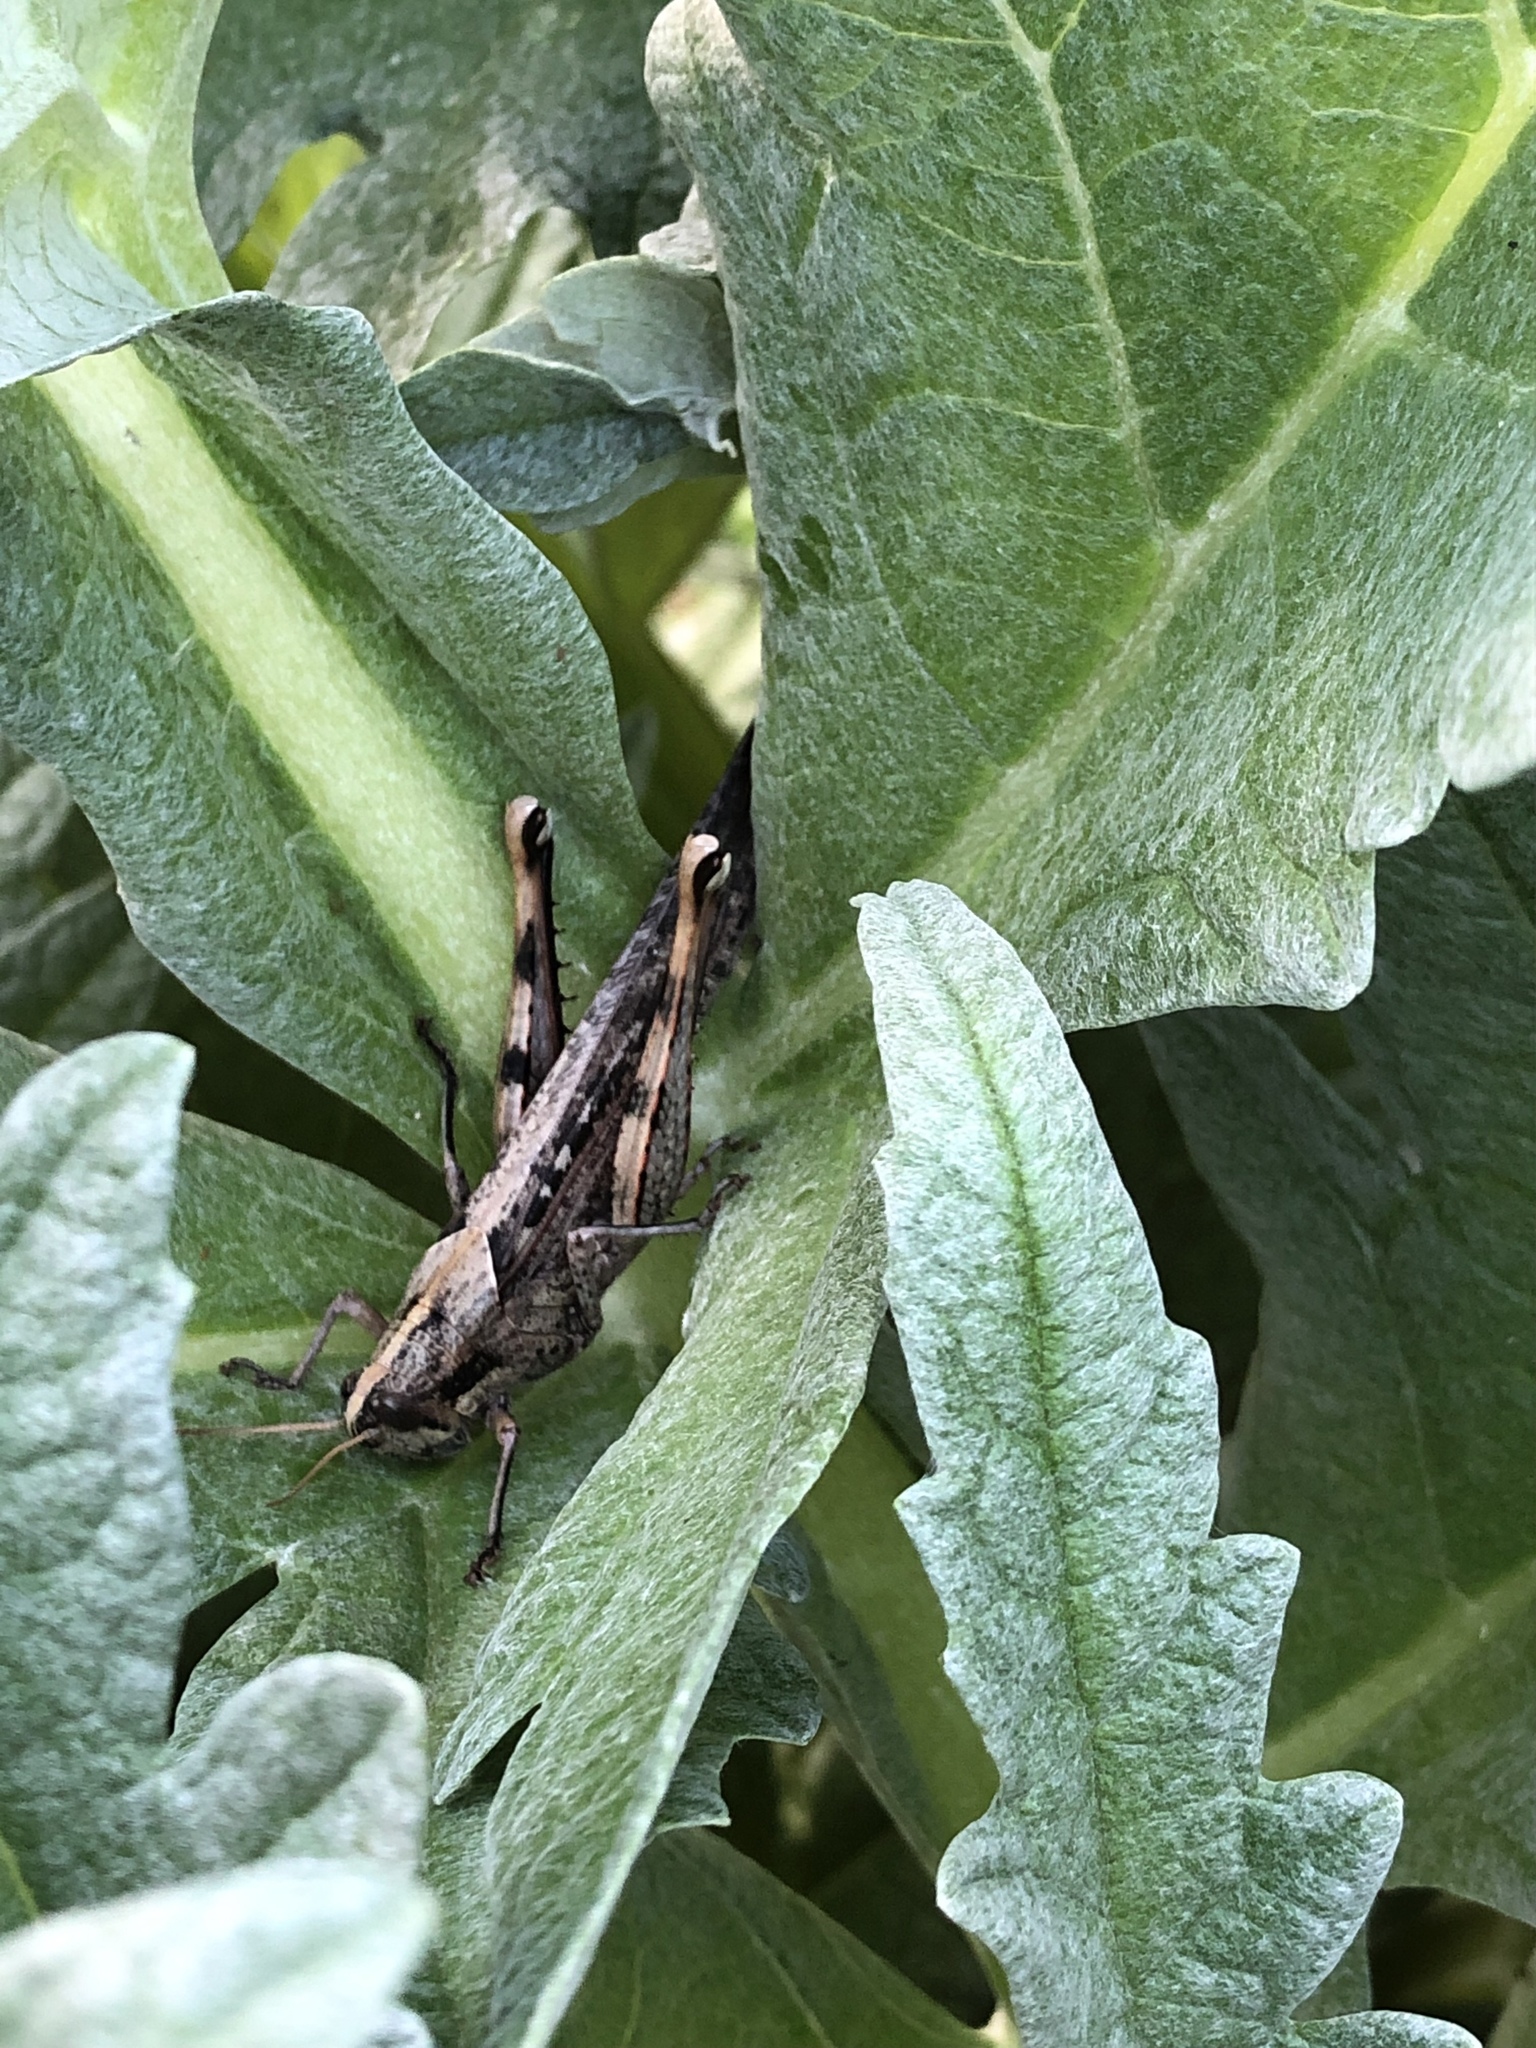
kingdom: Animalia
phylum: Arthropoda
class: Insecta
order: Orthoptera
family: Acrididae
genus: Schistocerca
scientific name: Schistocerca nitens
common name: Vagrant grasshopper
